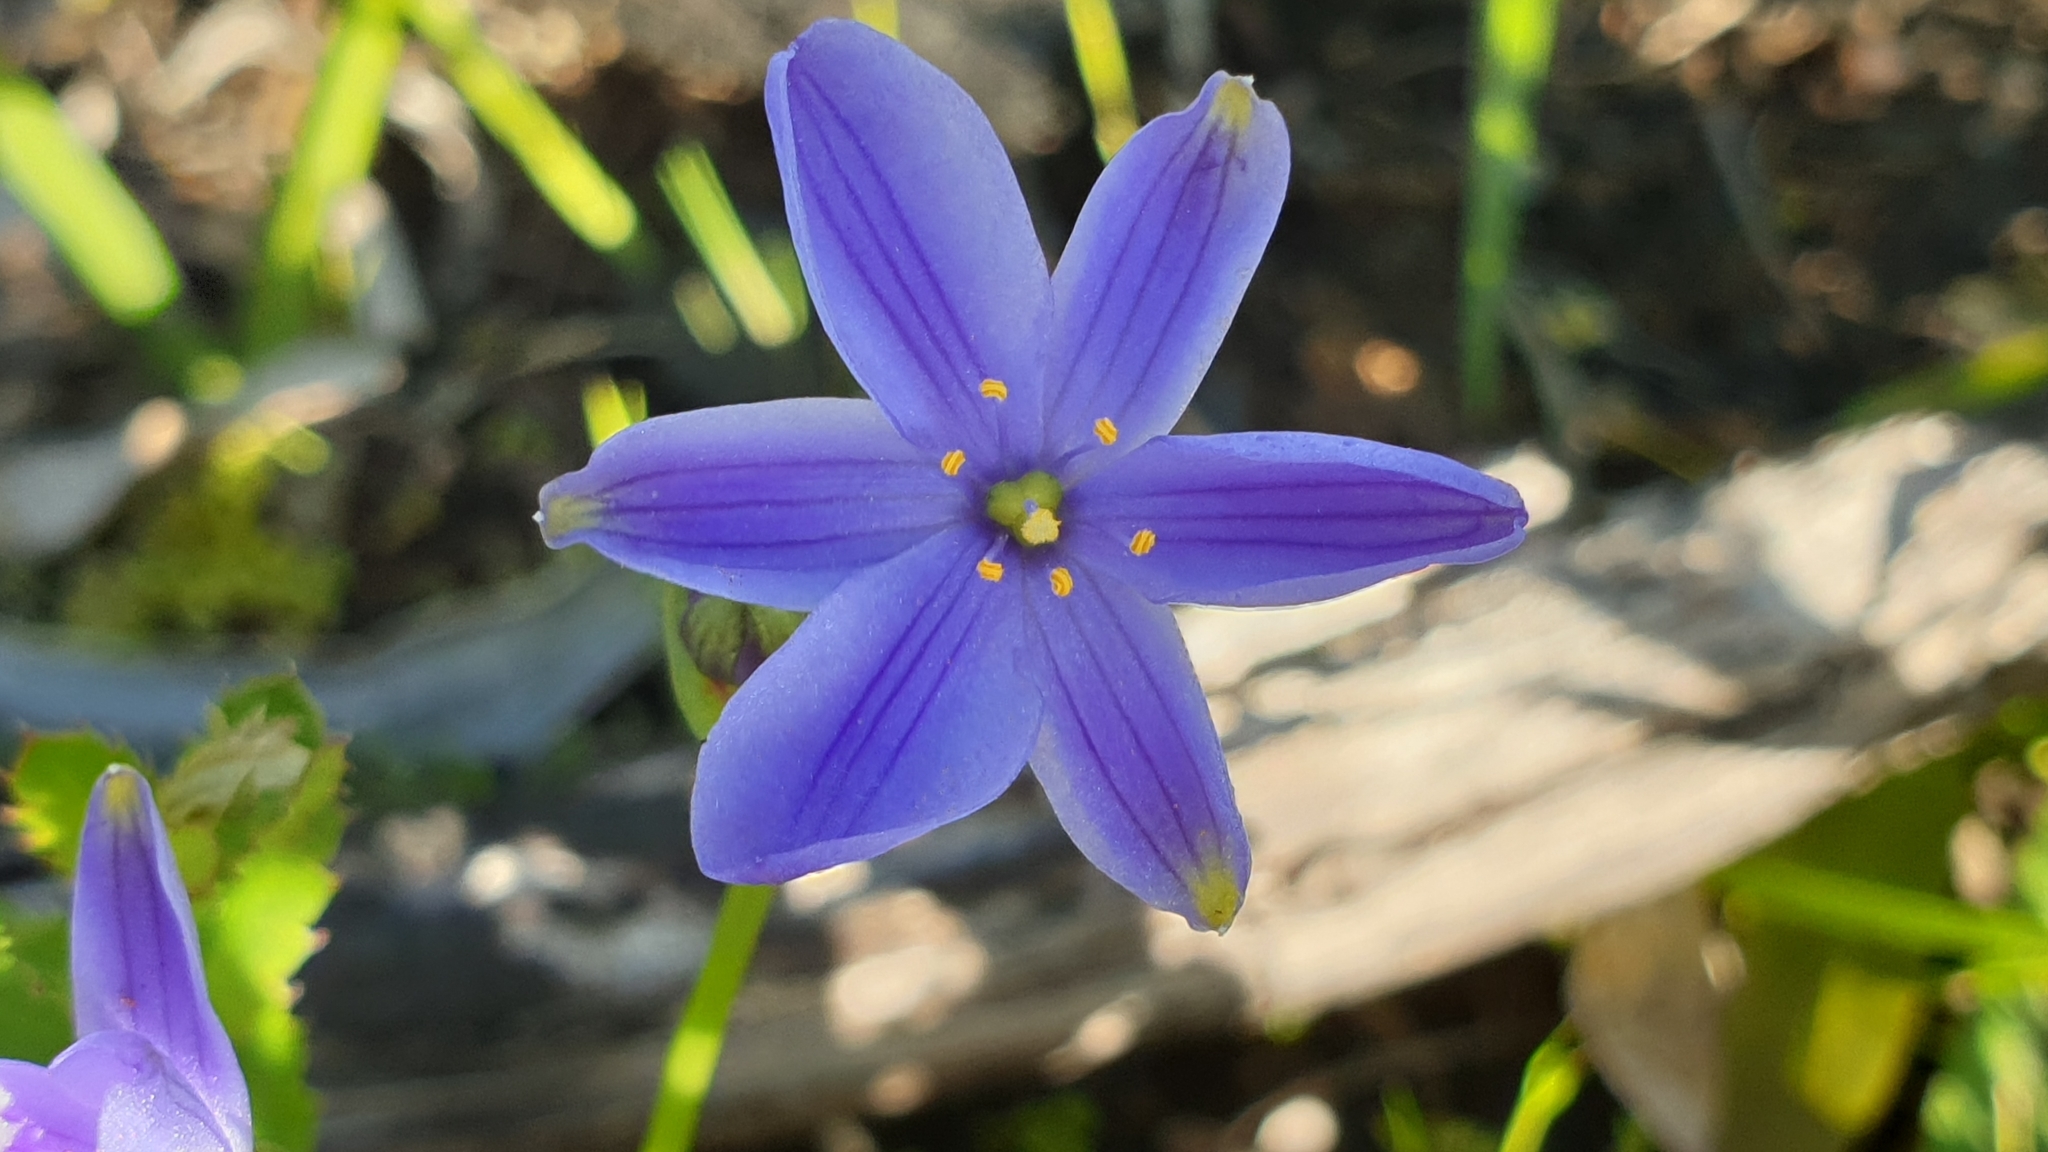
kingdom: Plantae
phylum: Tracheophyta
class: Liliopsida
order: Asparagales
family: Asphodelaceae
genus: Chamaescilla
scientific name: Chamaescilla corymbosa
